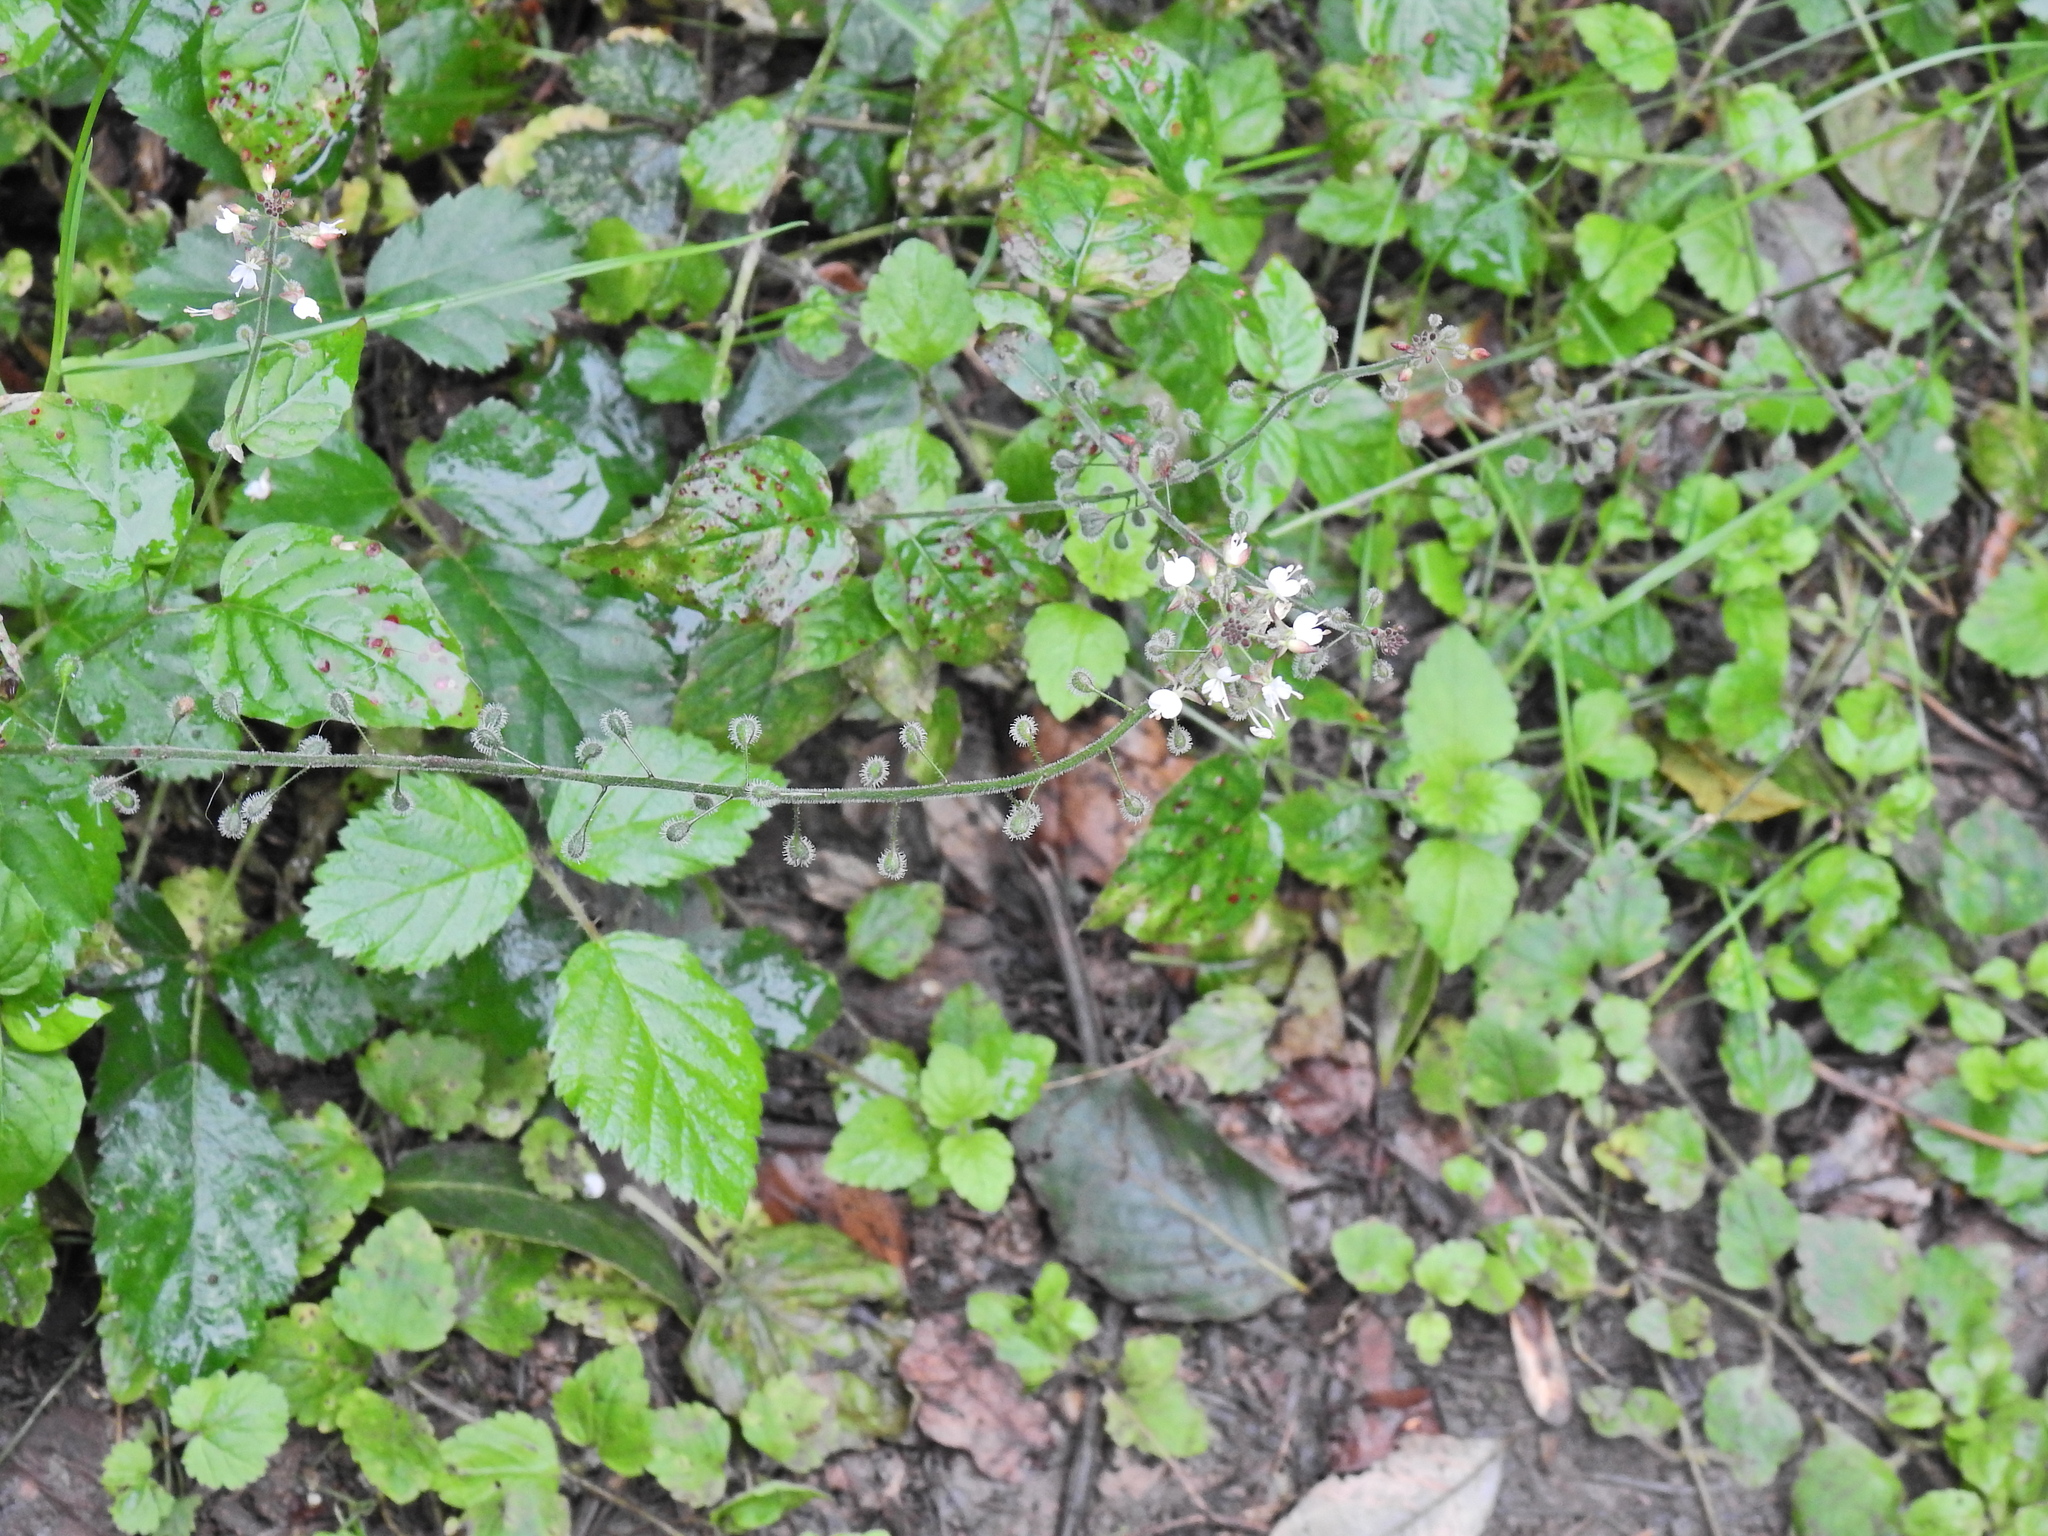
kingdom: Plantae
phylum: Tracheophyta
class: Magnoliopsida
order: Myrtales
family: Onagraceae
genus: Circaea
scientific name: Circaea lutetiana
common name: Enchanter's-nightshade
